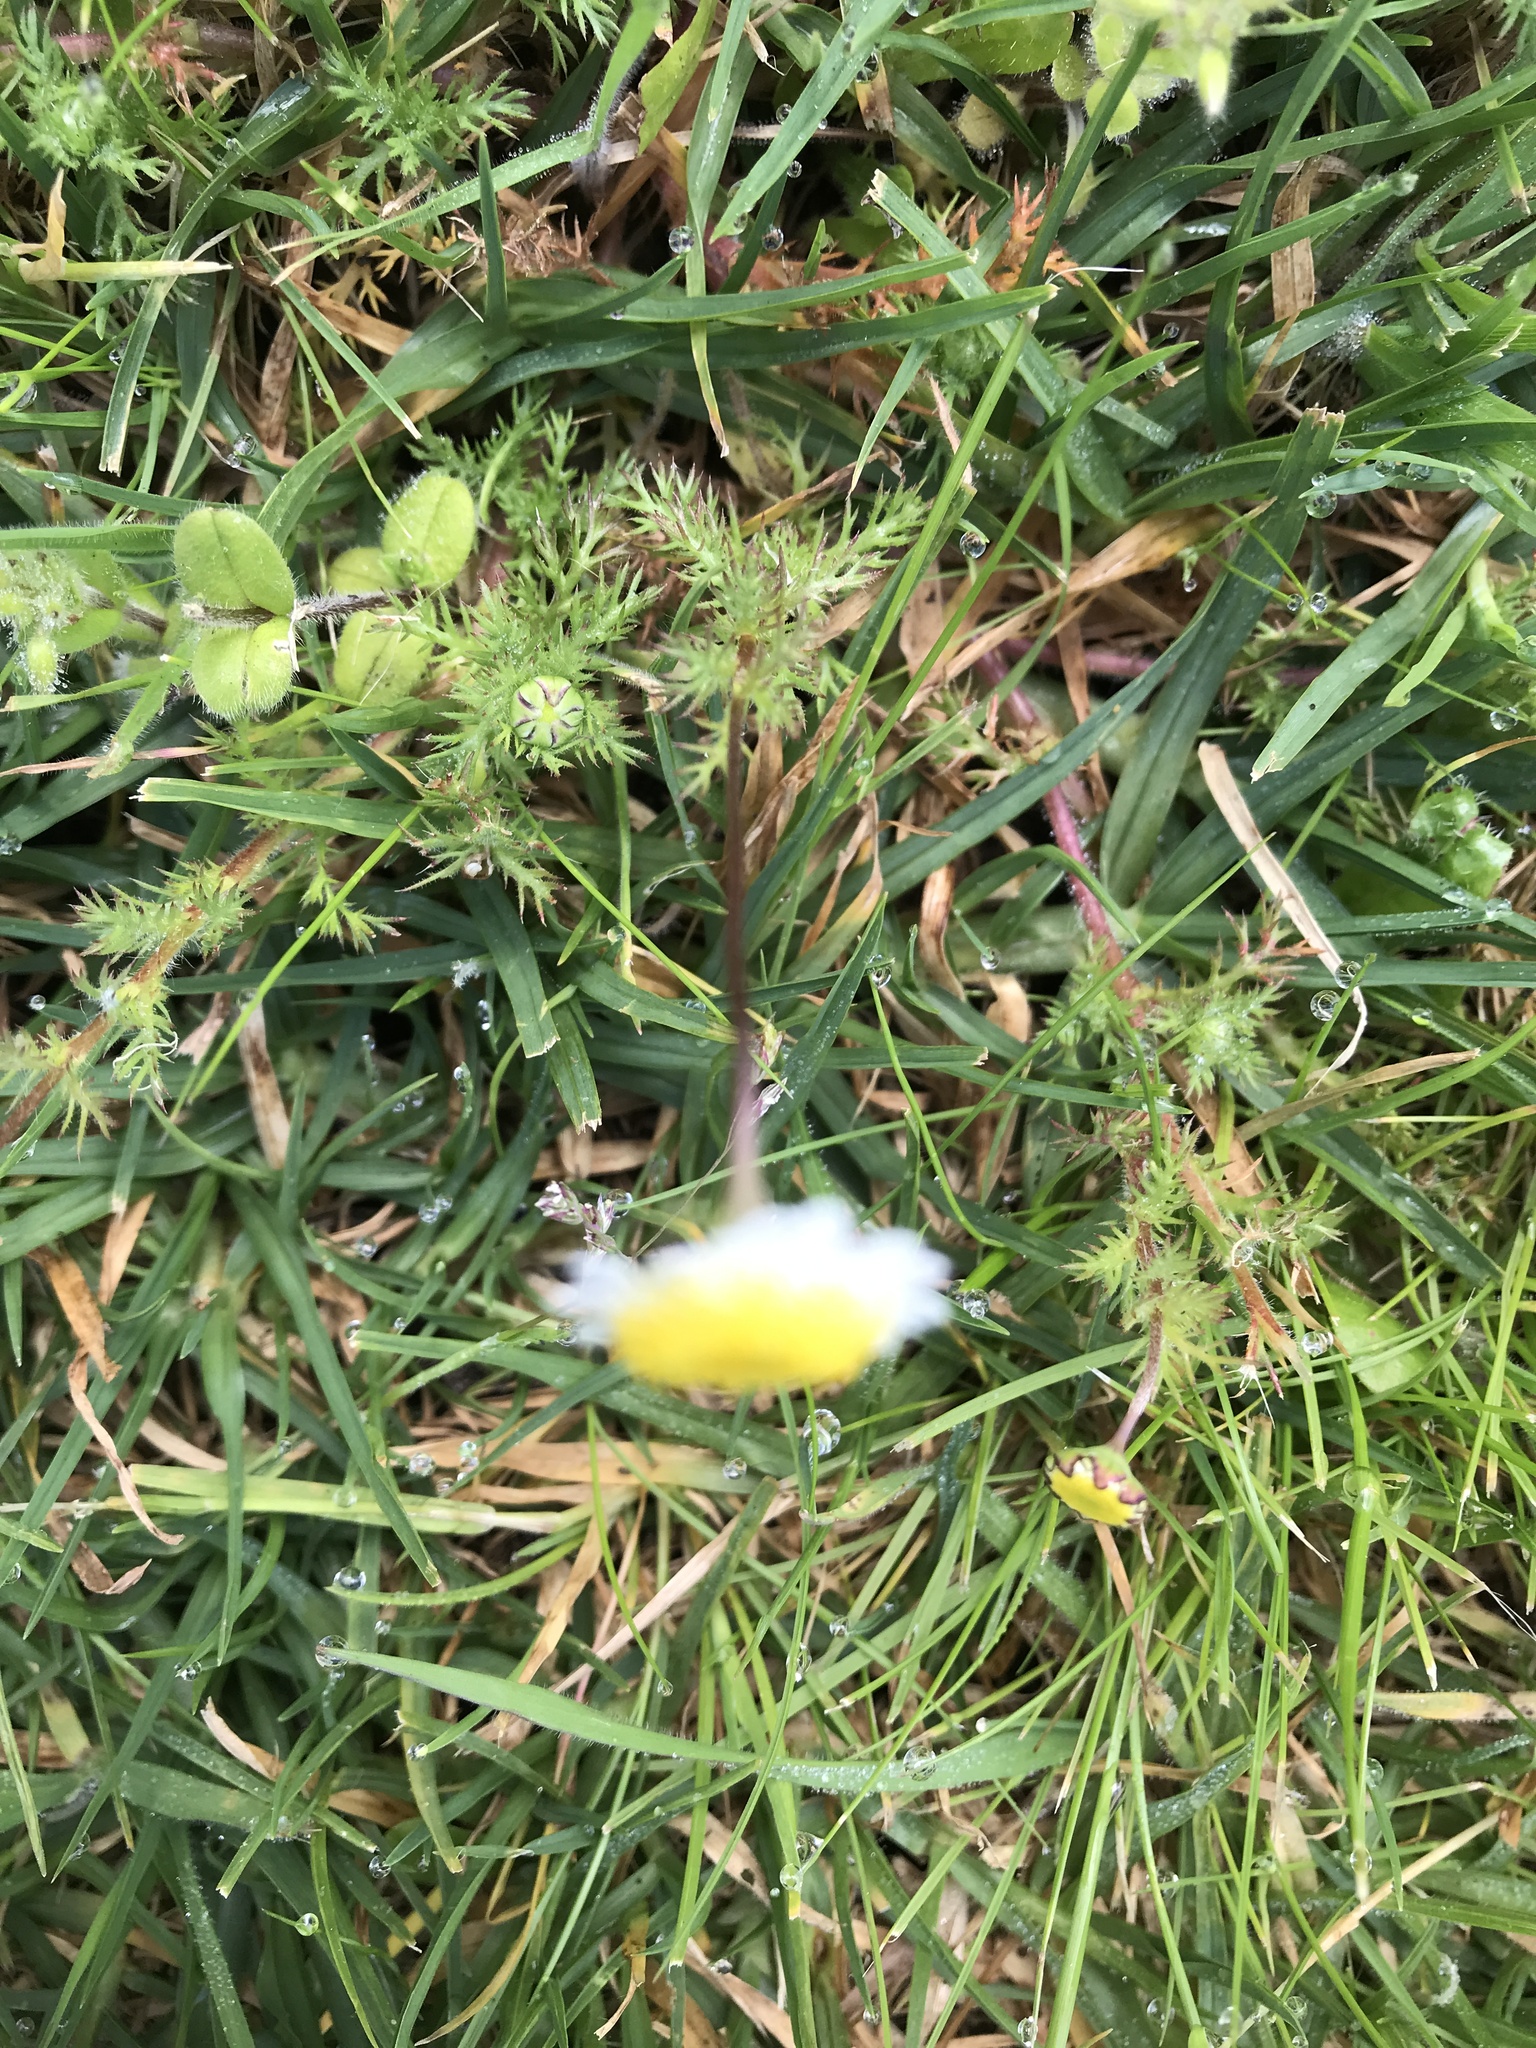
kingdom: Plantae
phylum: Tracheophyta
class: Magnoliopsida
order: Asterales
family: Asteraceae
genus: Cotula
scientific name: Cotula turbinata
